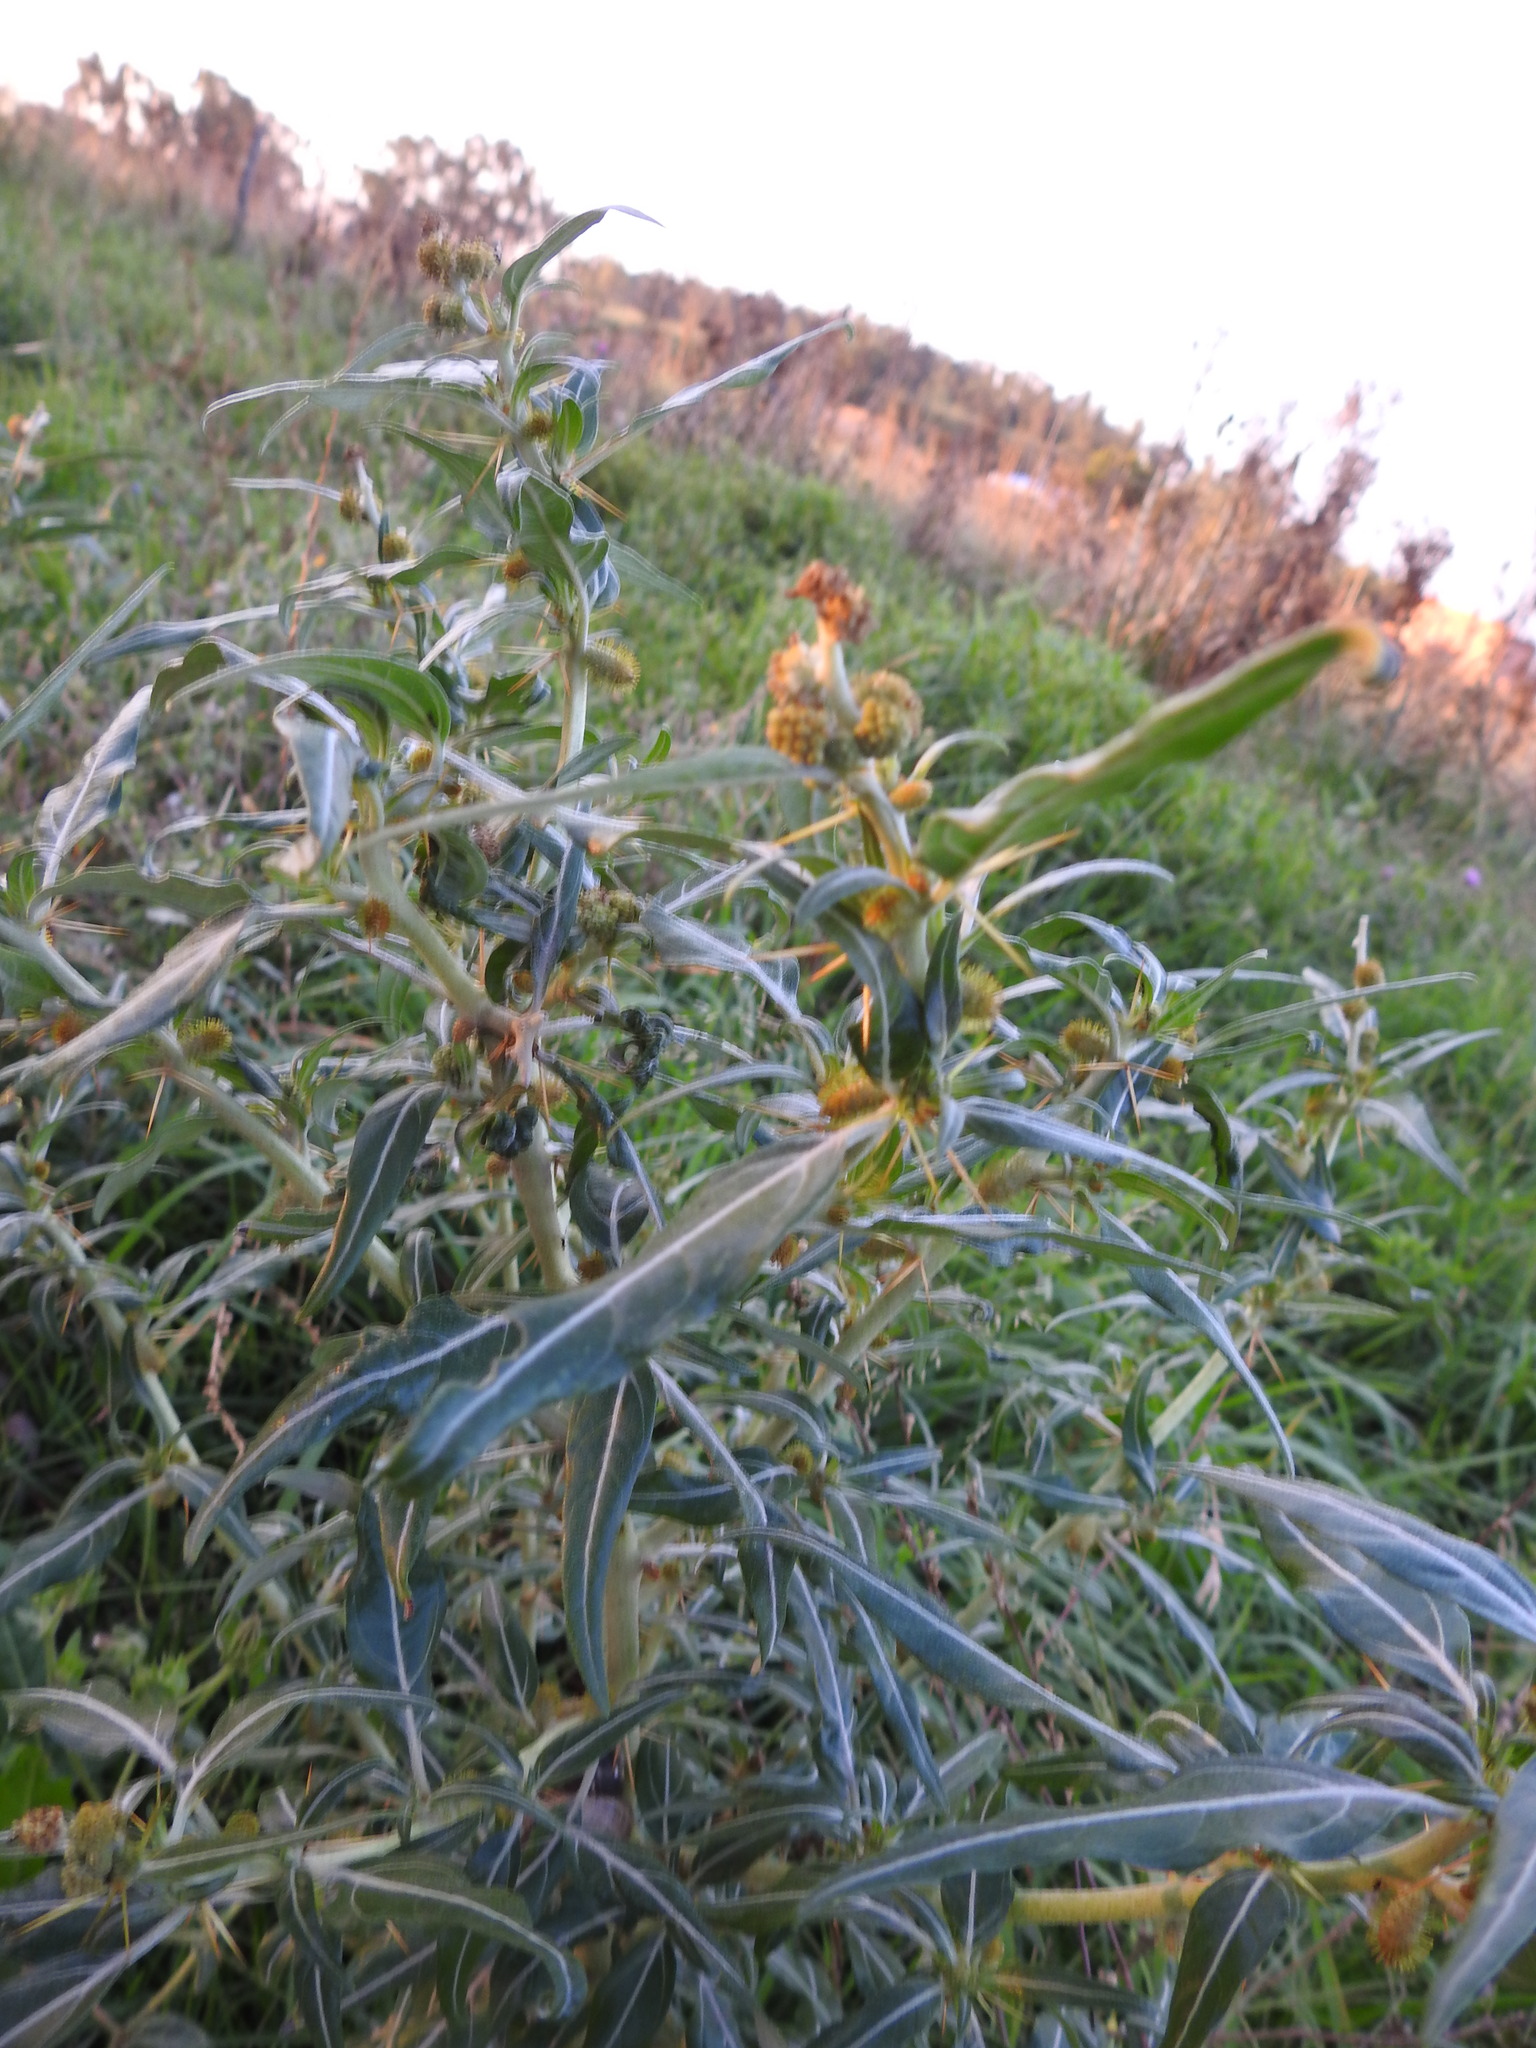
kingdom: Plantae
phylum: Tracheophyta
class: Magnoliopsida
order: Asterales
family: Asteraceae
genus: Xanthium
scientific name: Xanthium spinosum
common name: Spiny cocklebur
